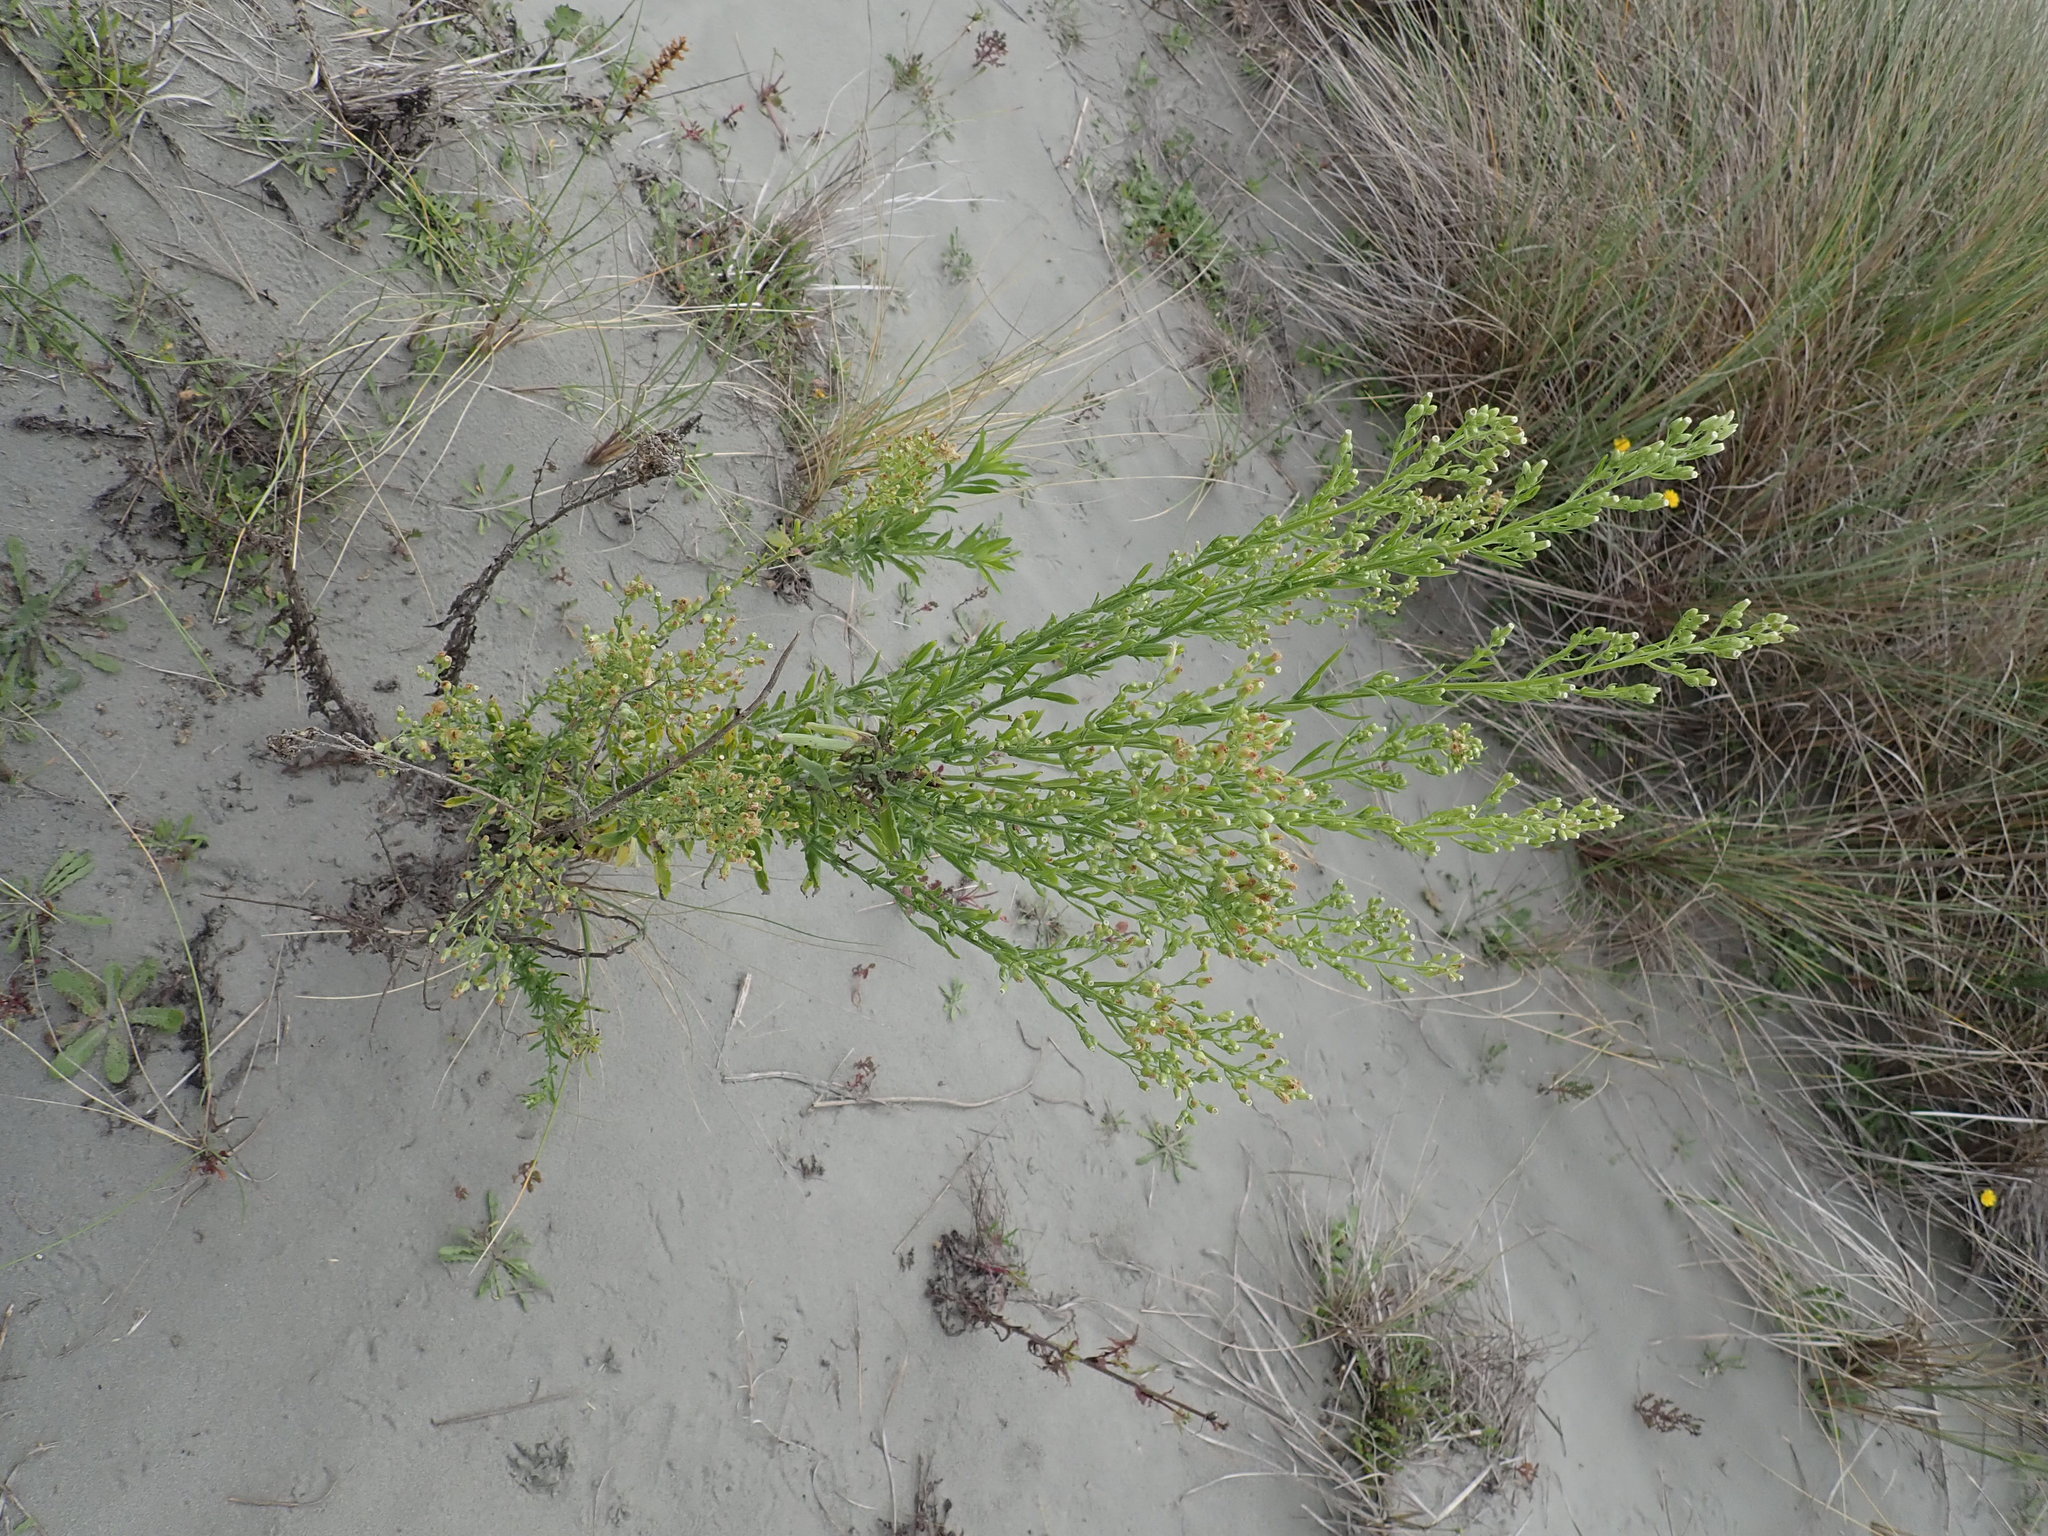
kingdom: Plantae
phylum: Tracheophyta
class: Magnoliopsida
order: Asterales
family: Asteraceae
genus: Erigeron
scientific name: Erigeron sumatrensis
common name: Daisy
